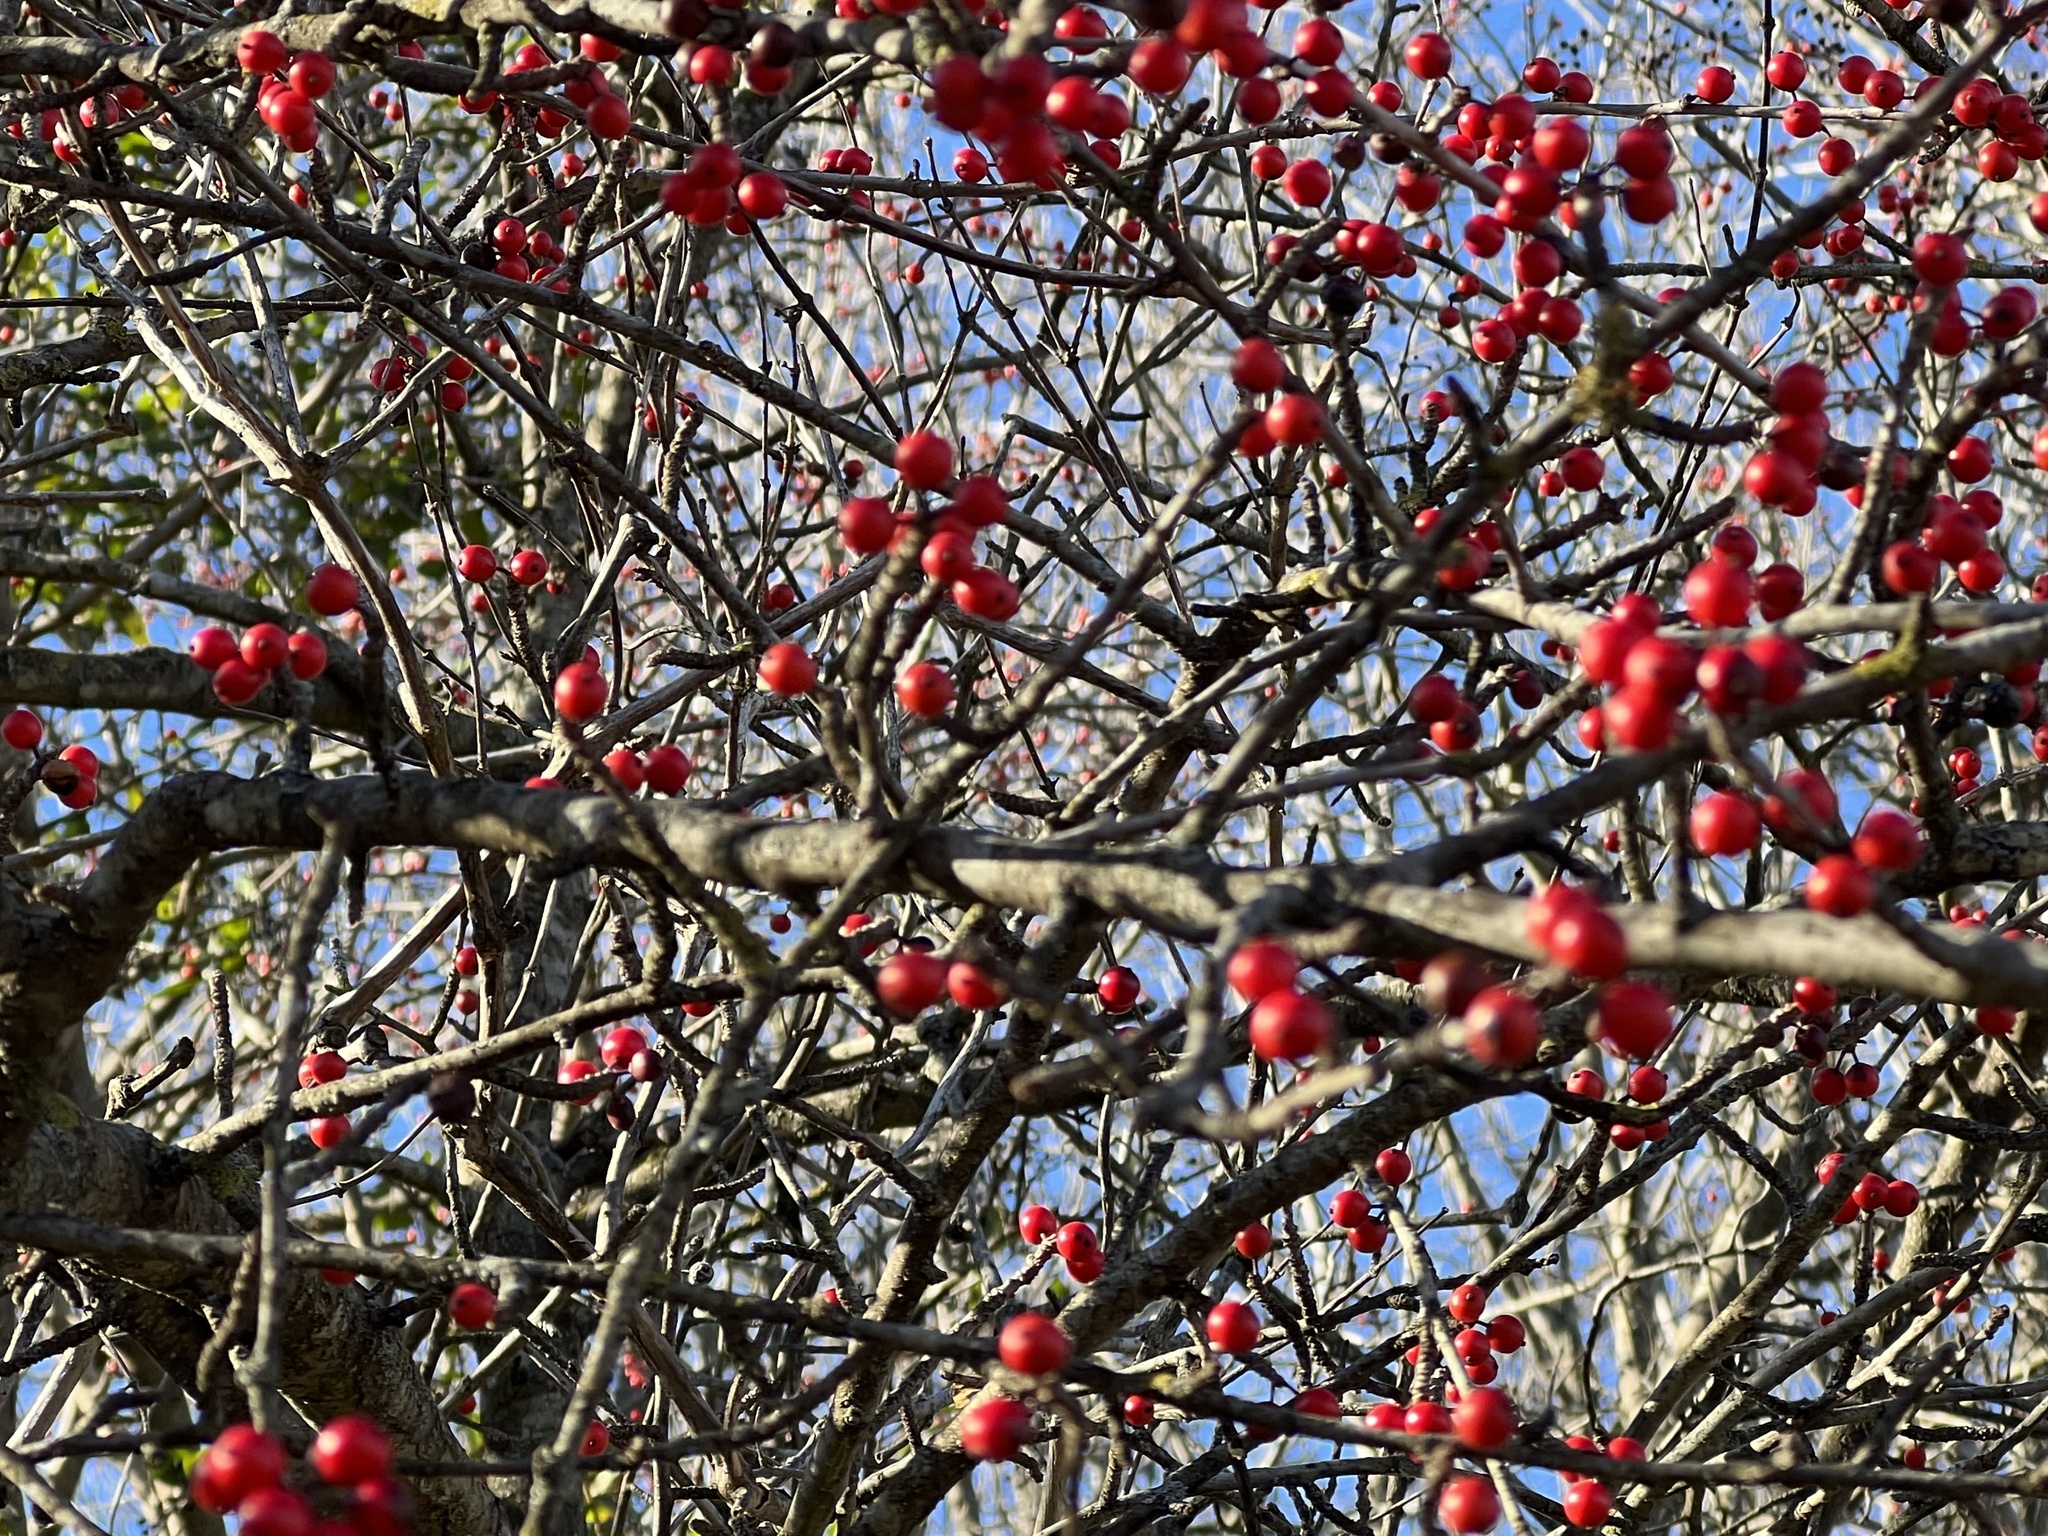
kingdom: Plantae
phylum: Tracheophyta
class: Magnoliopsida
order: Aquifoliales
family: Aquifoliaceae
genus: Ilex
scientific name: Ilex decidua
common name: Possum-haw
